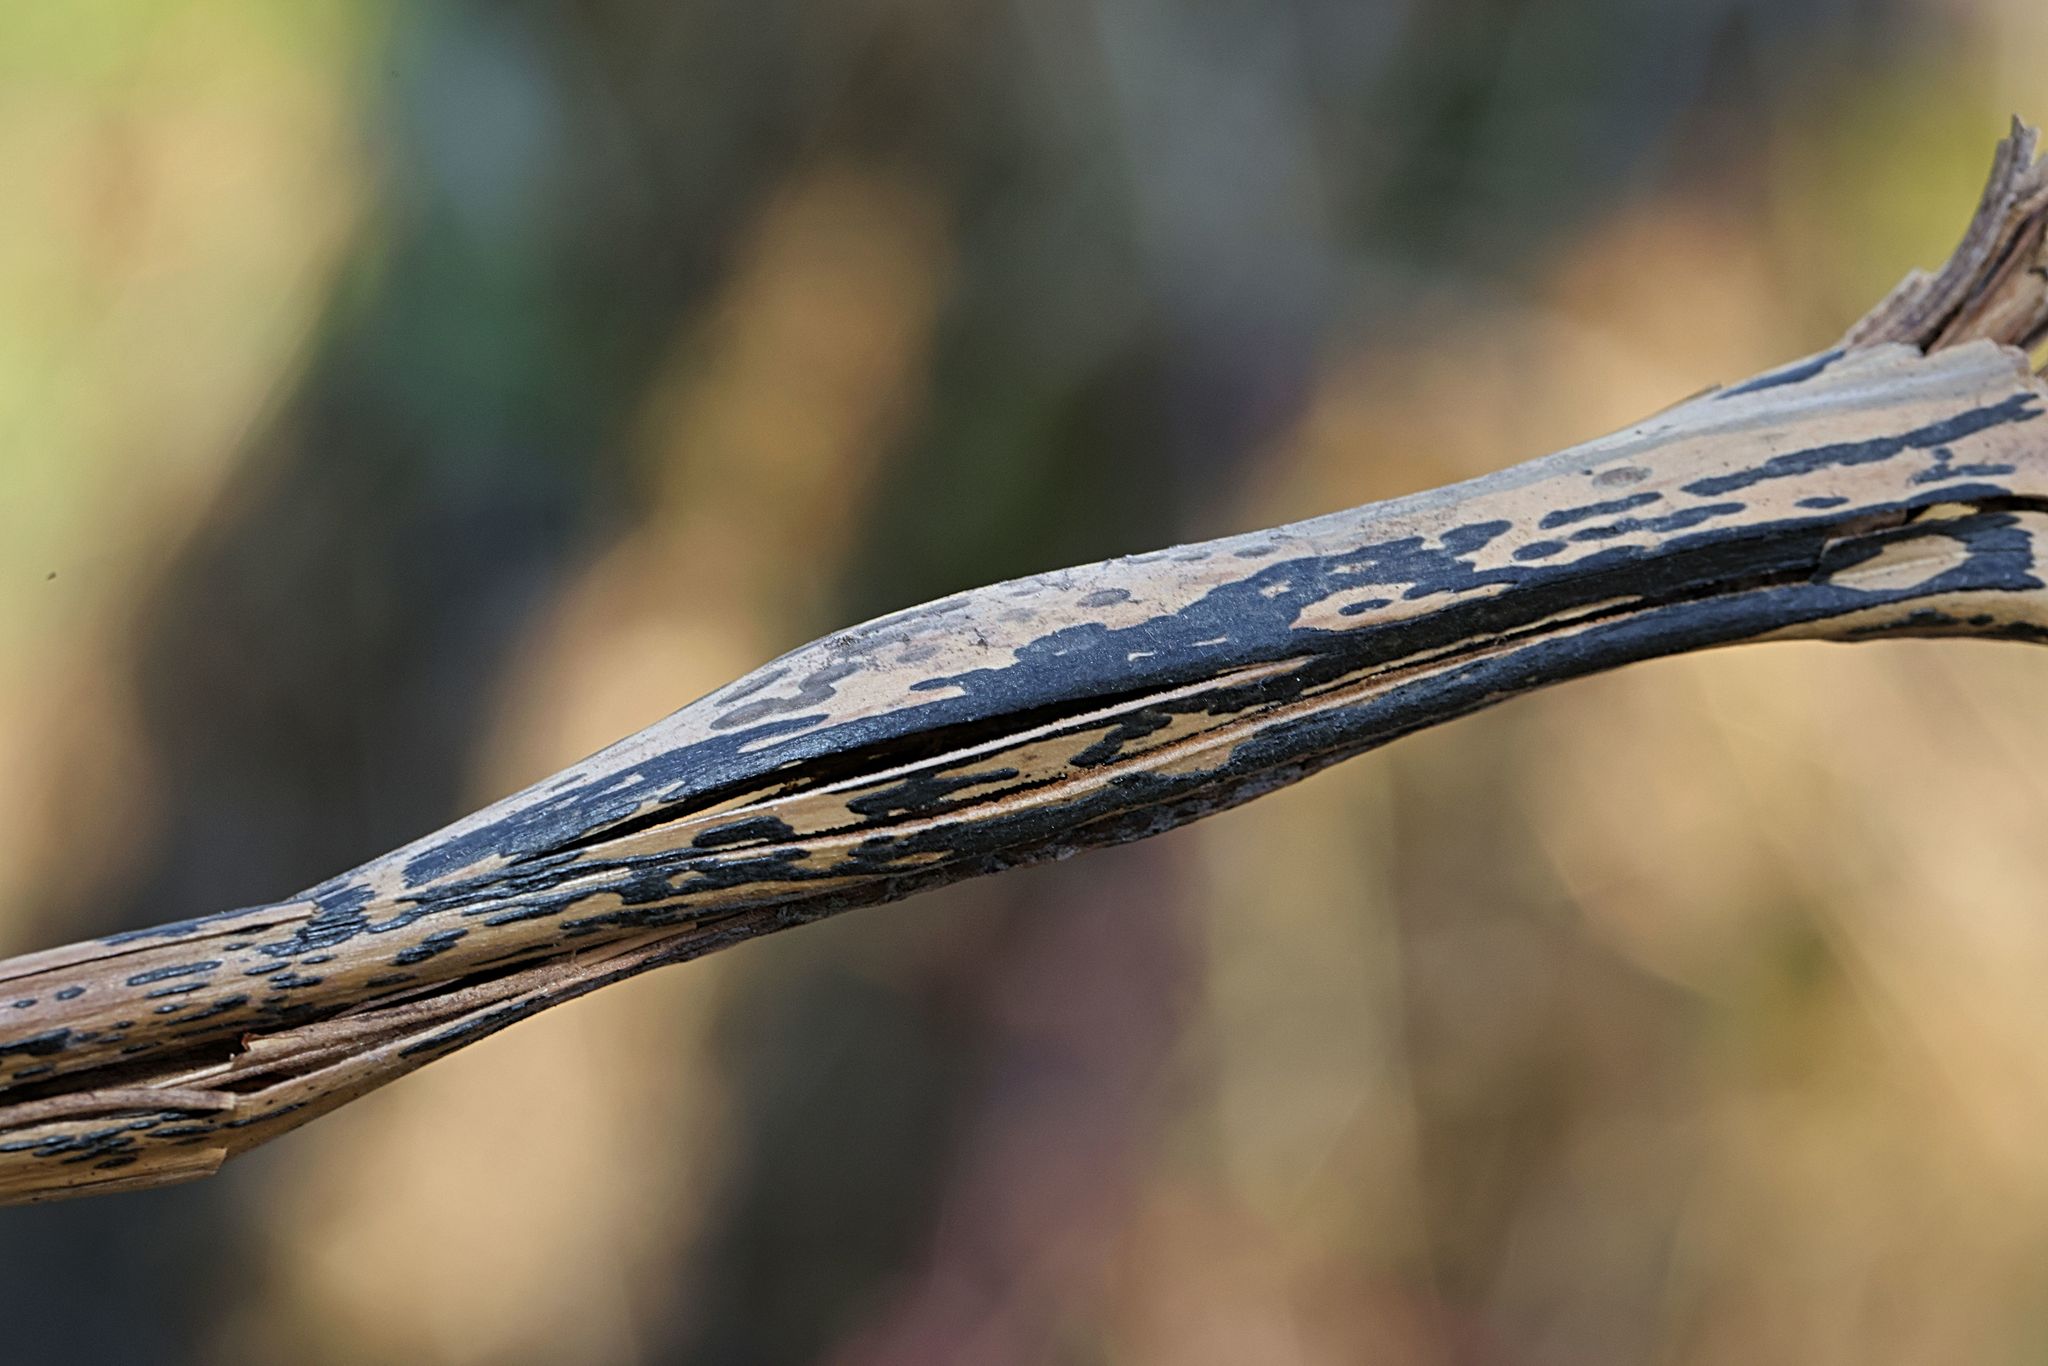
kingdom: Fungi
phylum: Ascomycota
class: Dothideomycetes
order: Pleosporales
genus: Rhopographus
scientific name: Rhopographus filicinus
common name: Bracken map
